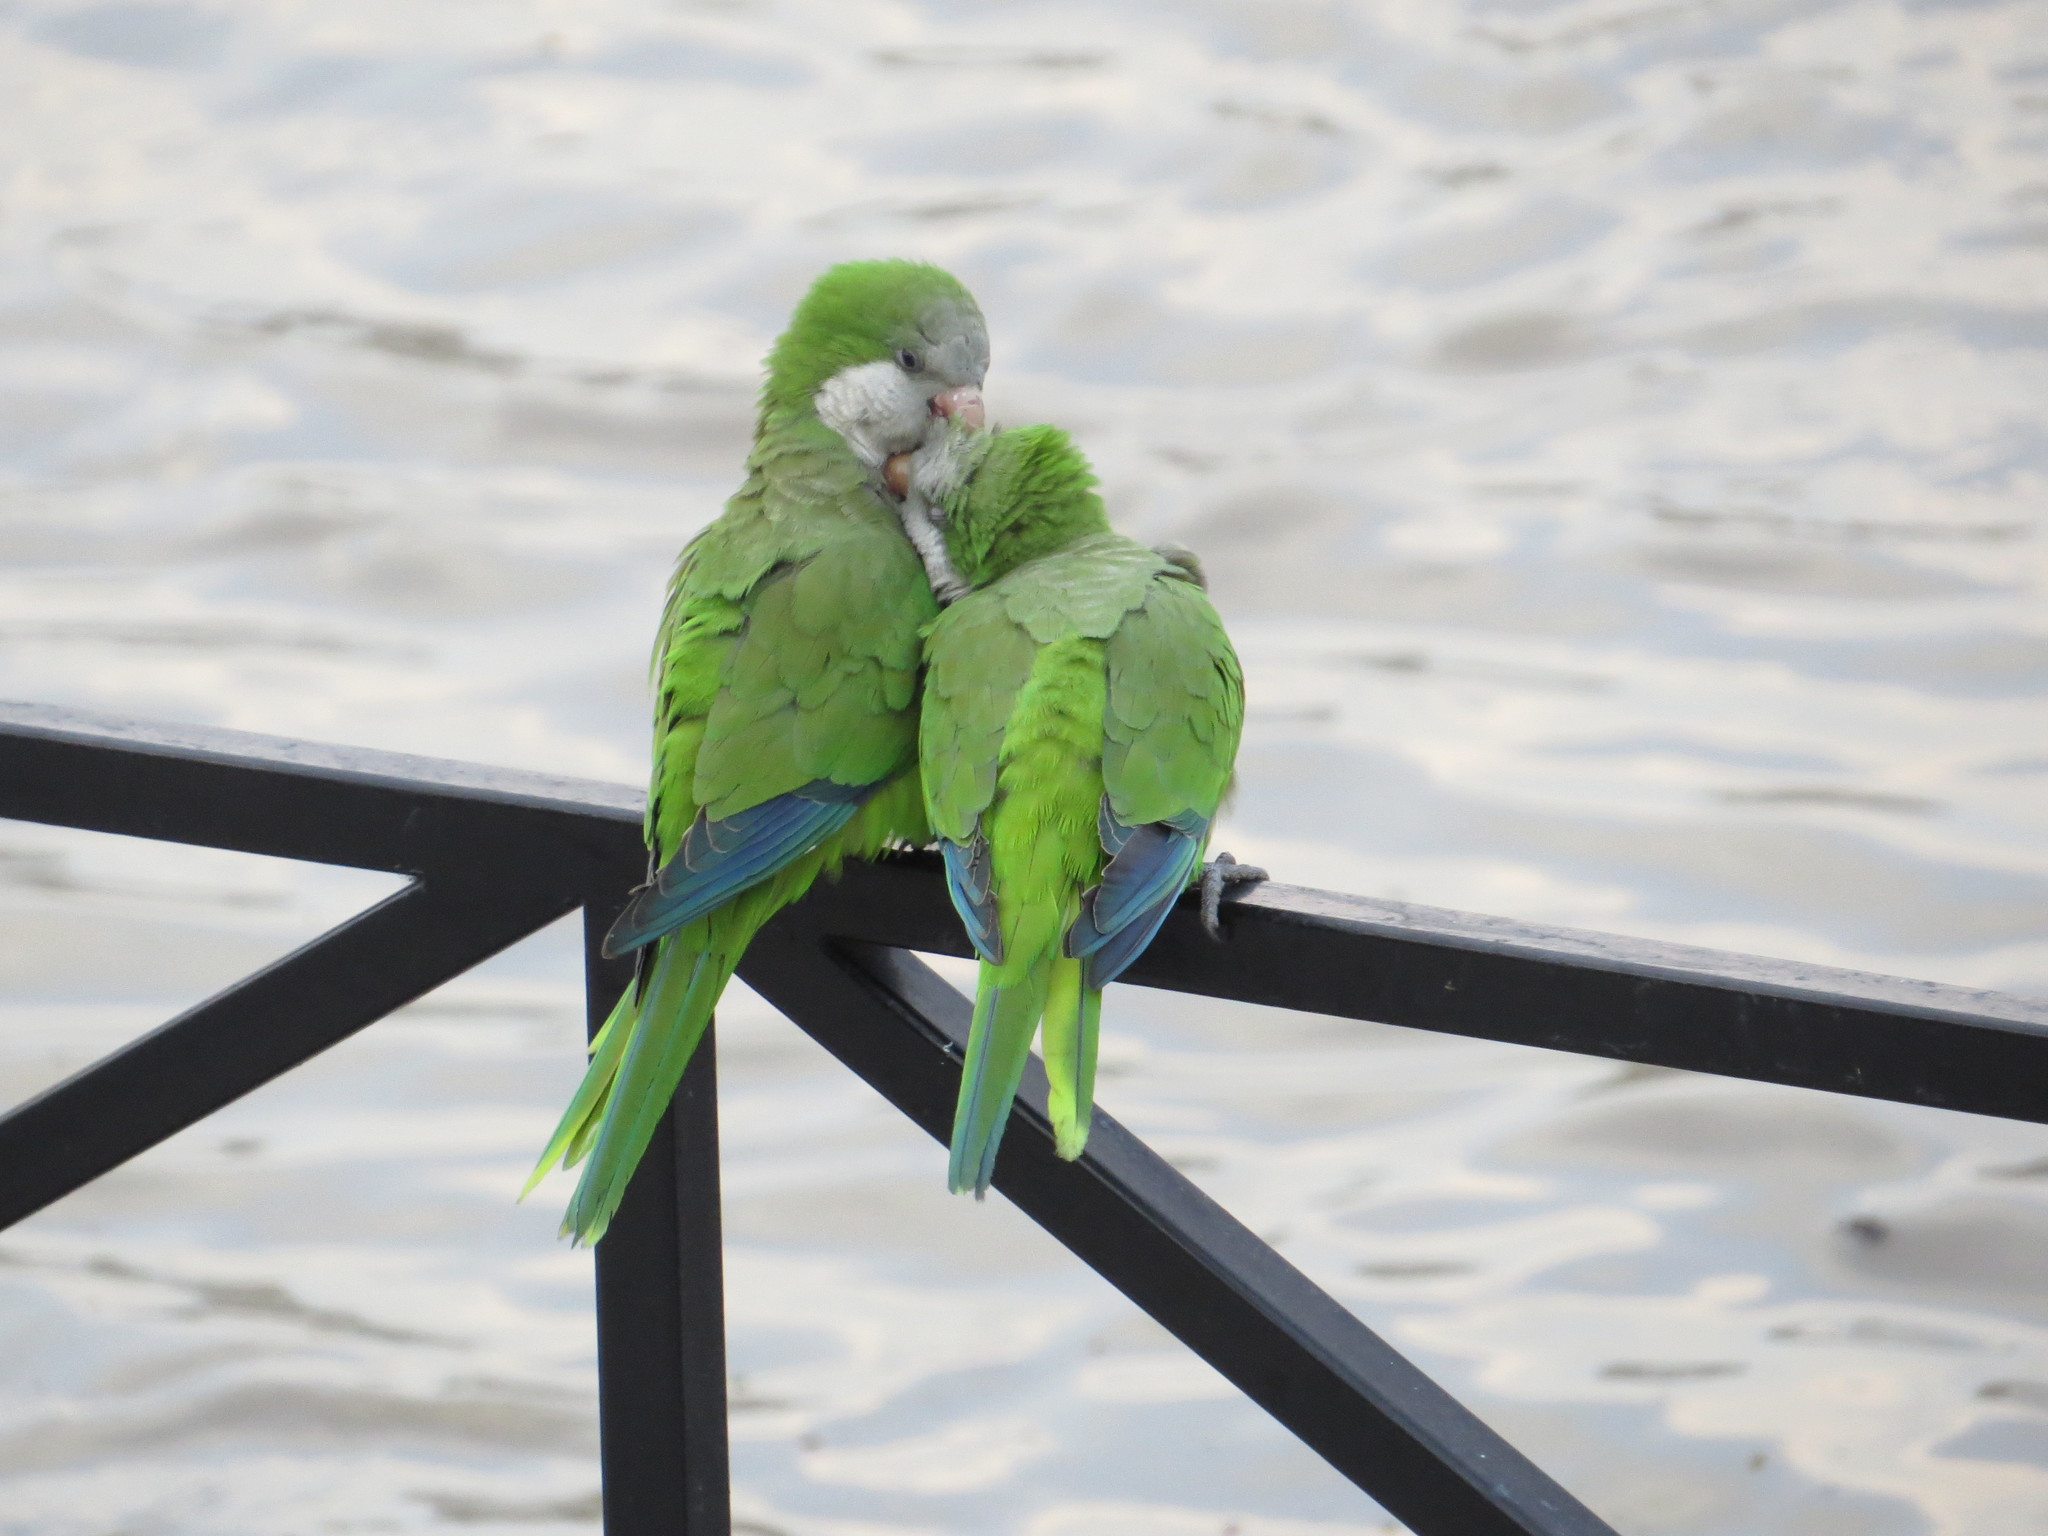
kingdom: Animalia
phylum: Chordata
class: Aves
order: Psittaciformes
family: Psittacidae
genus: Myiopsitta
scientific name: Myiopsitta monachus
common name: Monk parakeet
